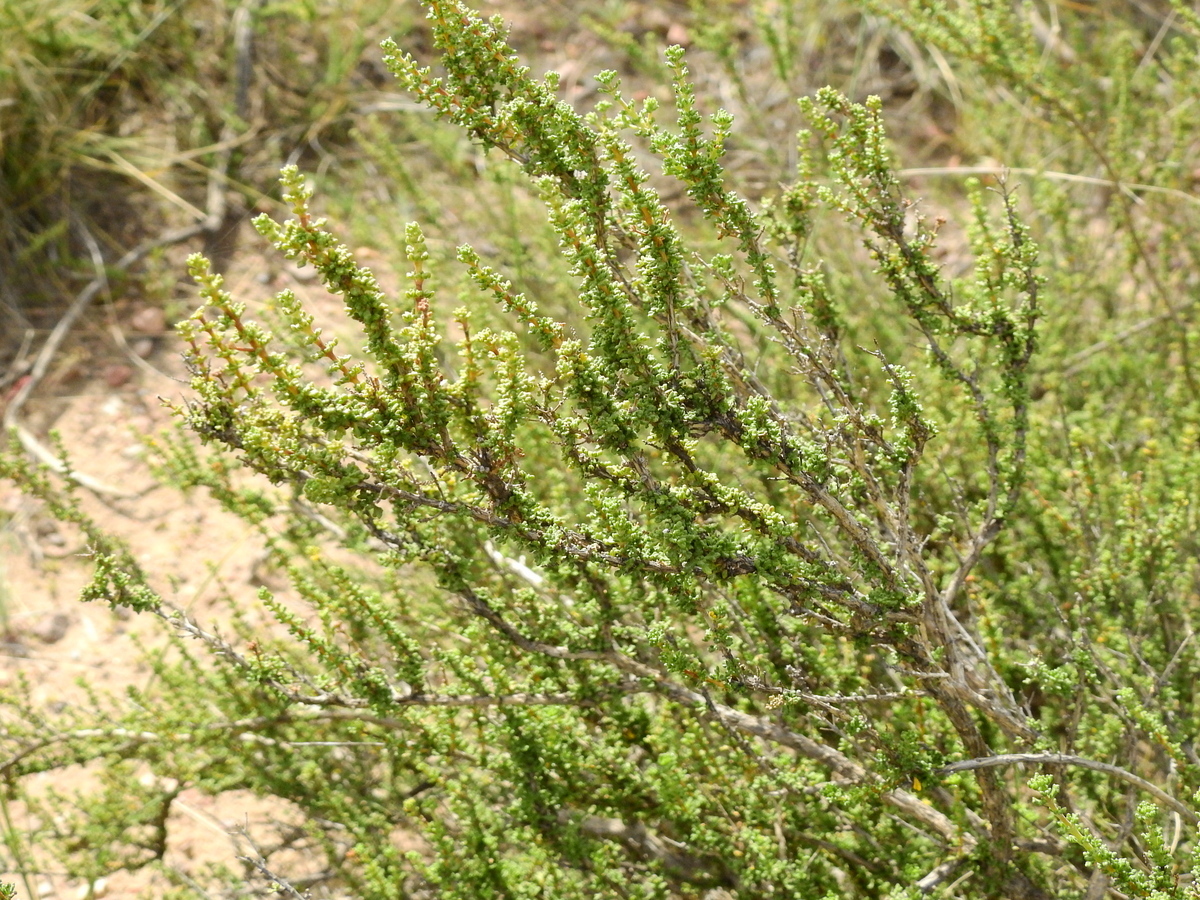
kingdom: Plantae
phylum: Tracheophyta
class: Magnoliopsida
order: Lamiales
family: Verbenaceae
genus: Acantholippia
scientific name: Acantholippia seriphioides
